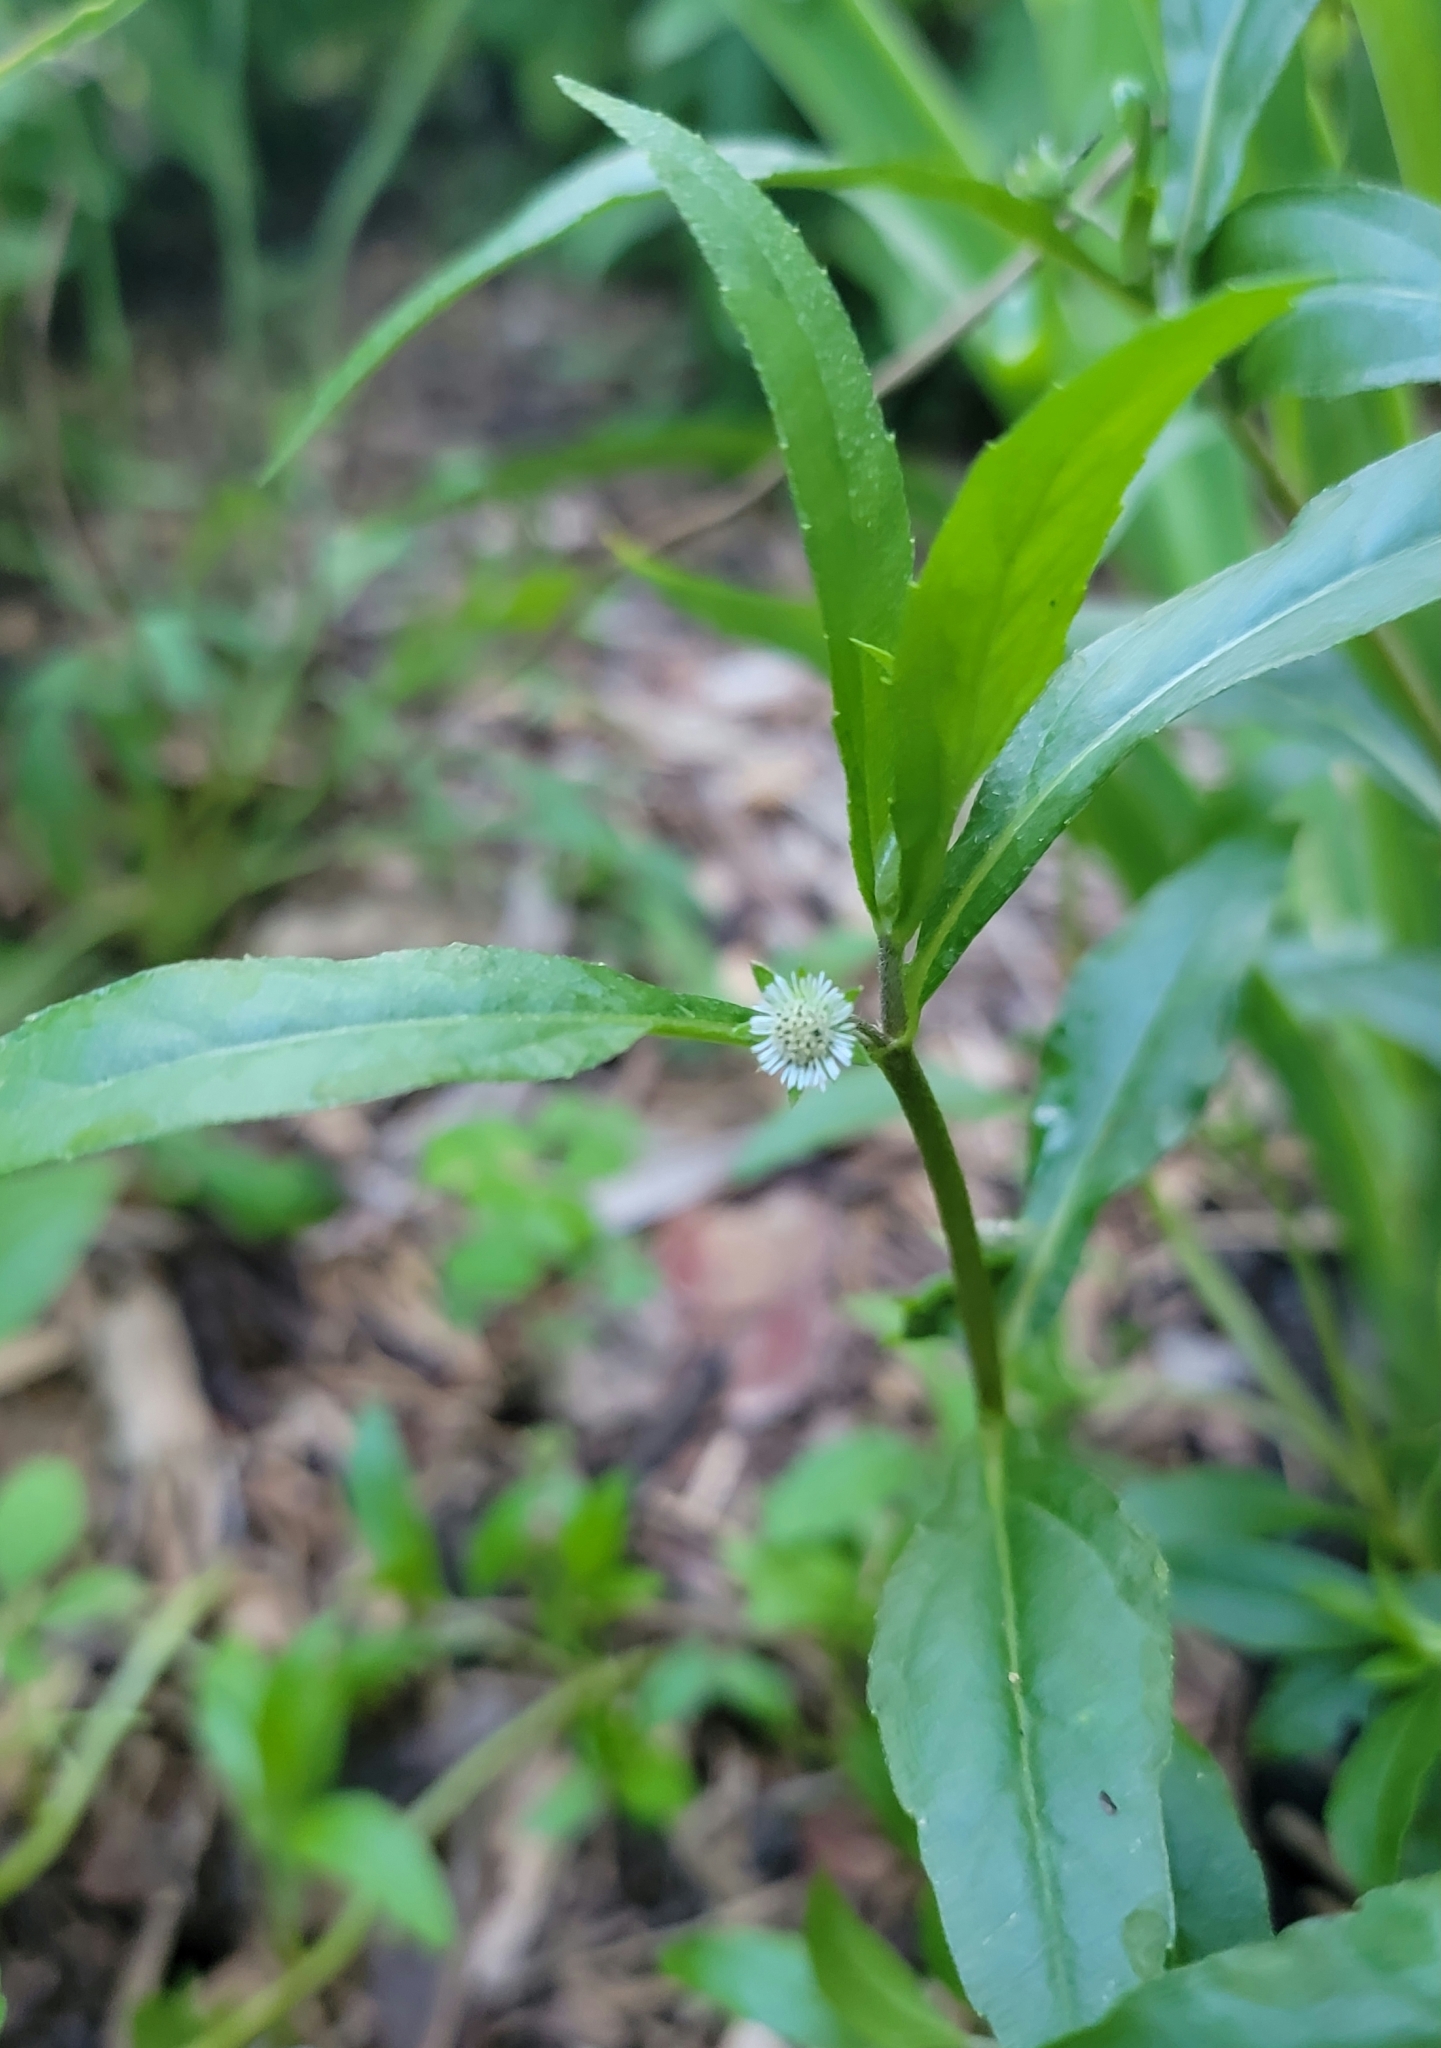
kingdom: Plantae
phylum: Tracheophyta
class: Magnoliopsida
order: Asterales
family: Asteraceae
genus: Eclipta
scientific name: Eclipta prostrata
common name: False daisy
